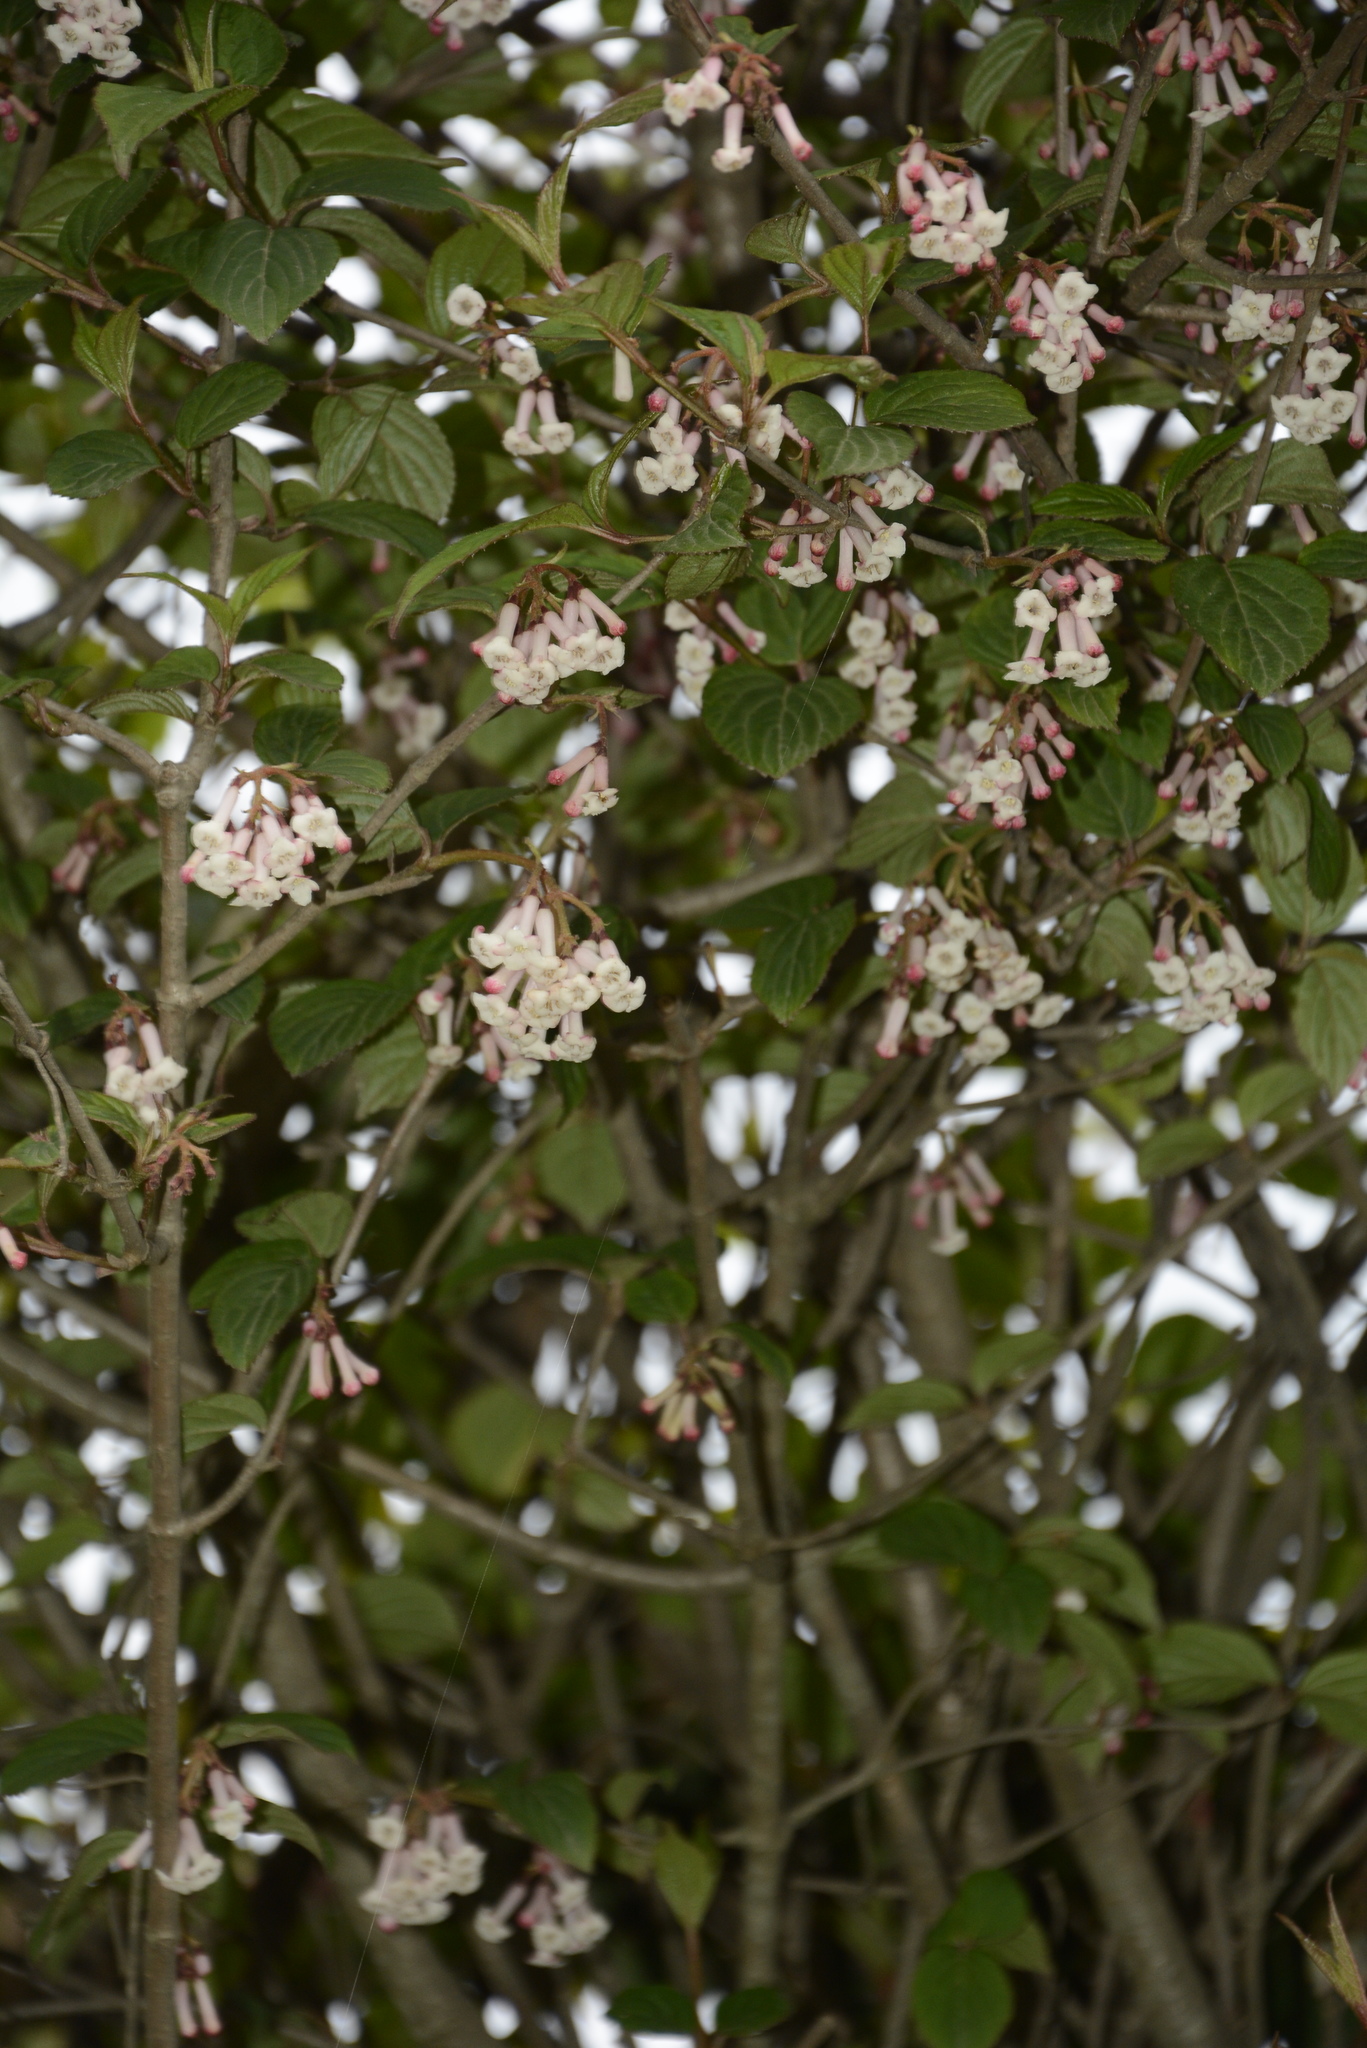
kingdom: Plantae
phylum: Tracheophyta
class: Magnoliopsida
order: Dipsacales
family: Viburnaceae
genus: Viburnum
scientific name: Viburnum erubescens
